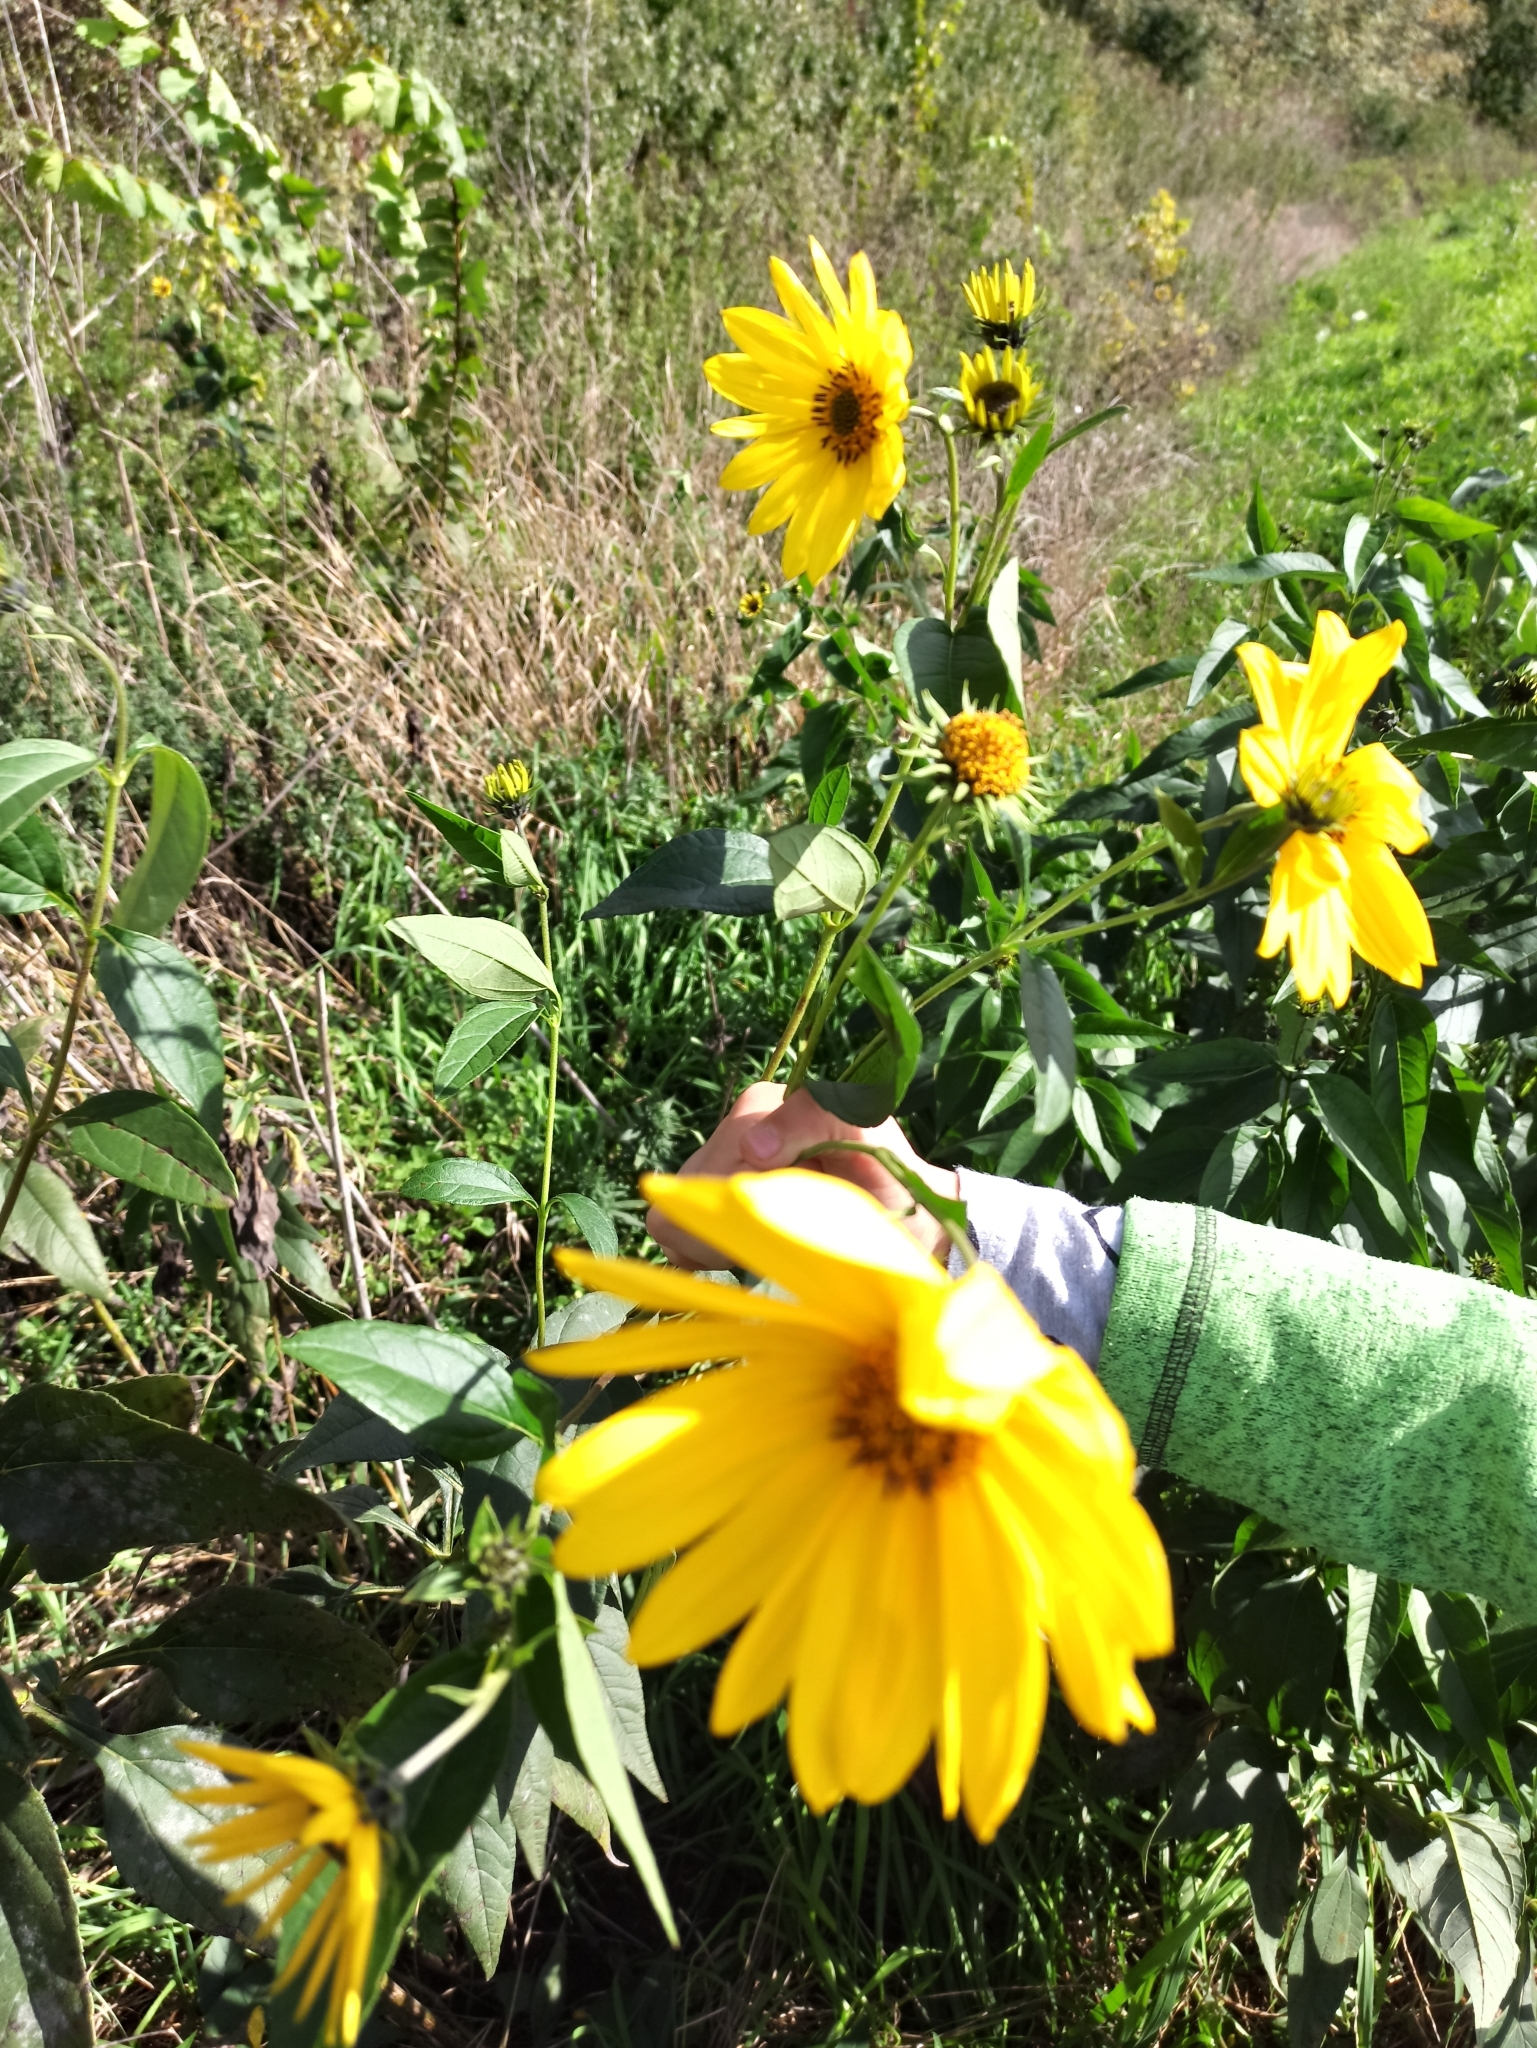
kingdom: Plantae
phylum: Tracheophyta
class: Magnoliopsida
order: Asterales
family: Asteraceae
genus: Helianthus
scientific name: Helianthus tuberosus
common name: Jerusalem artichoke
